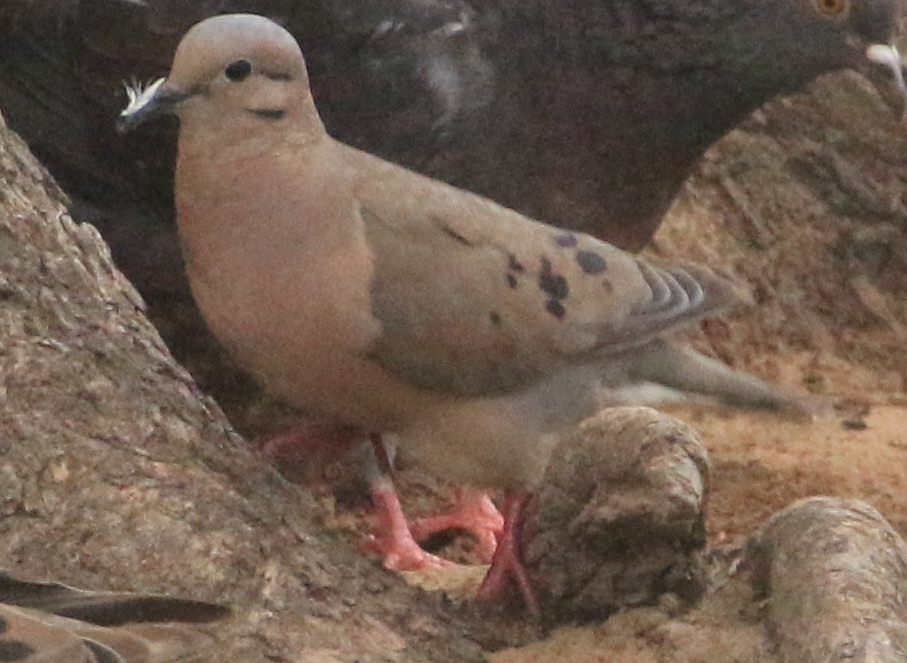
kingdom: Animalia
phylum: Chordata
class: Aves
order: Columbiformes
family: Columbidae
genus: Zenaida
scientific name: Zenaida auriculata
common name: Eared dove
